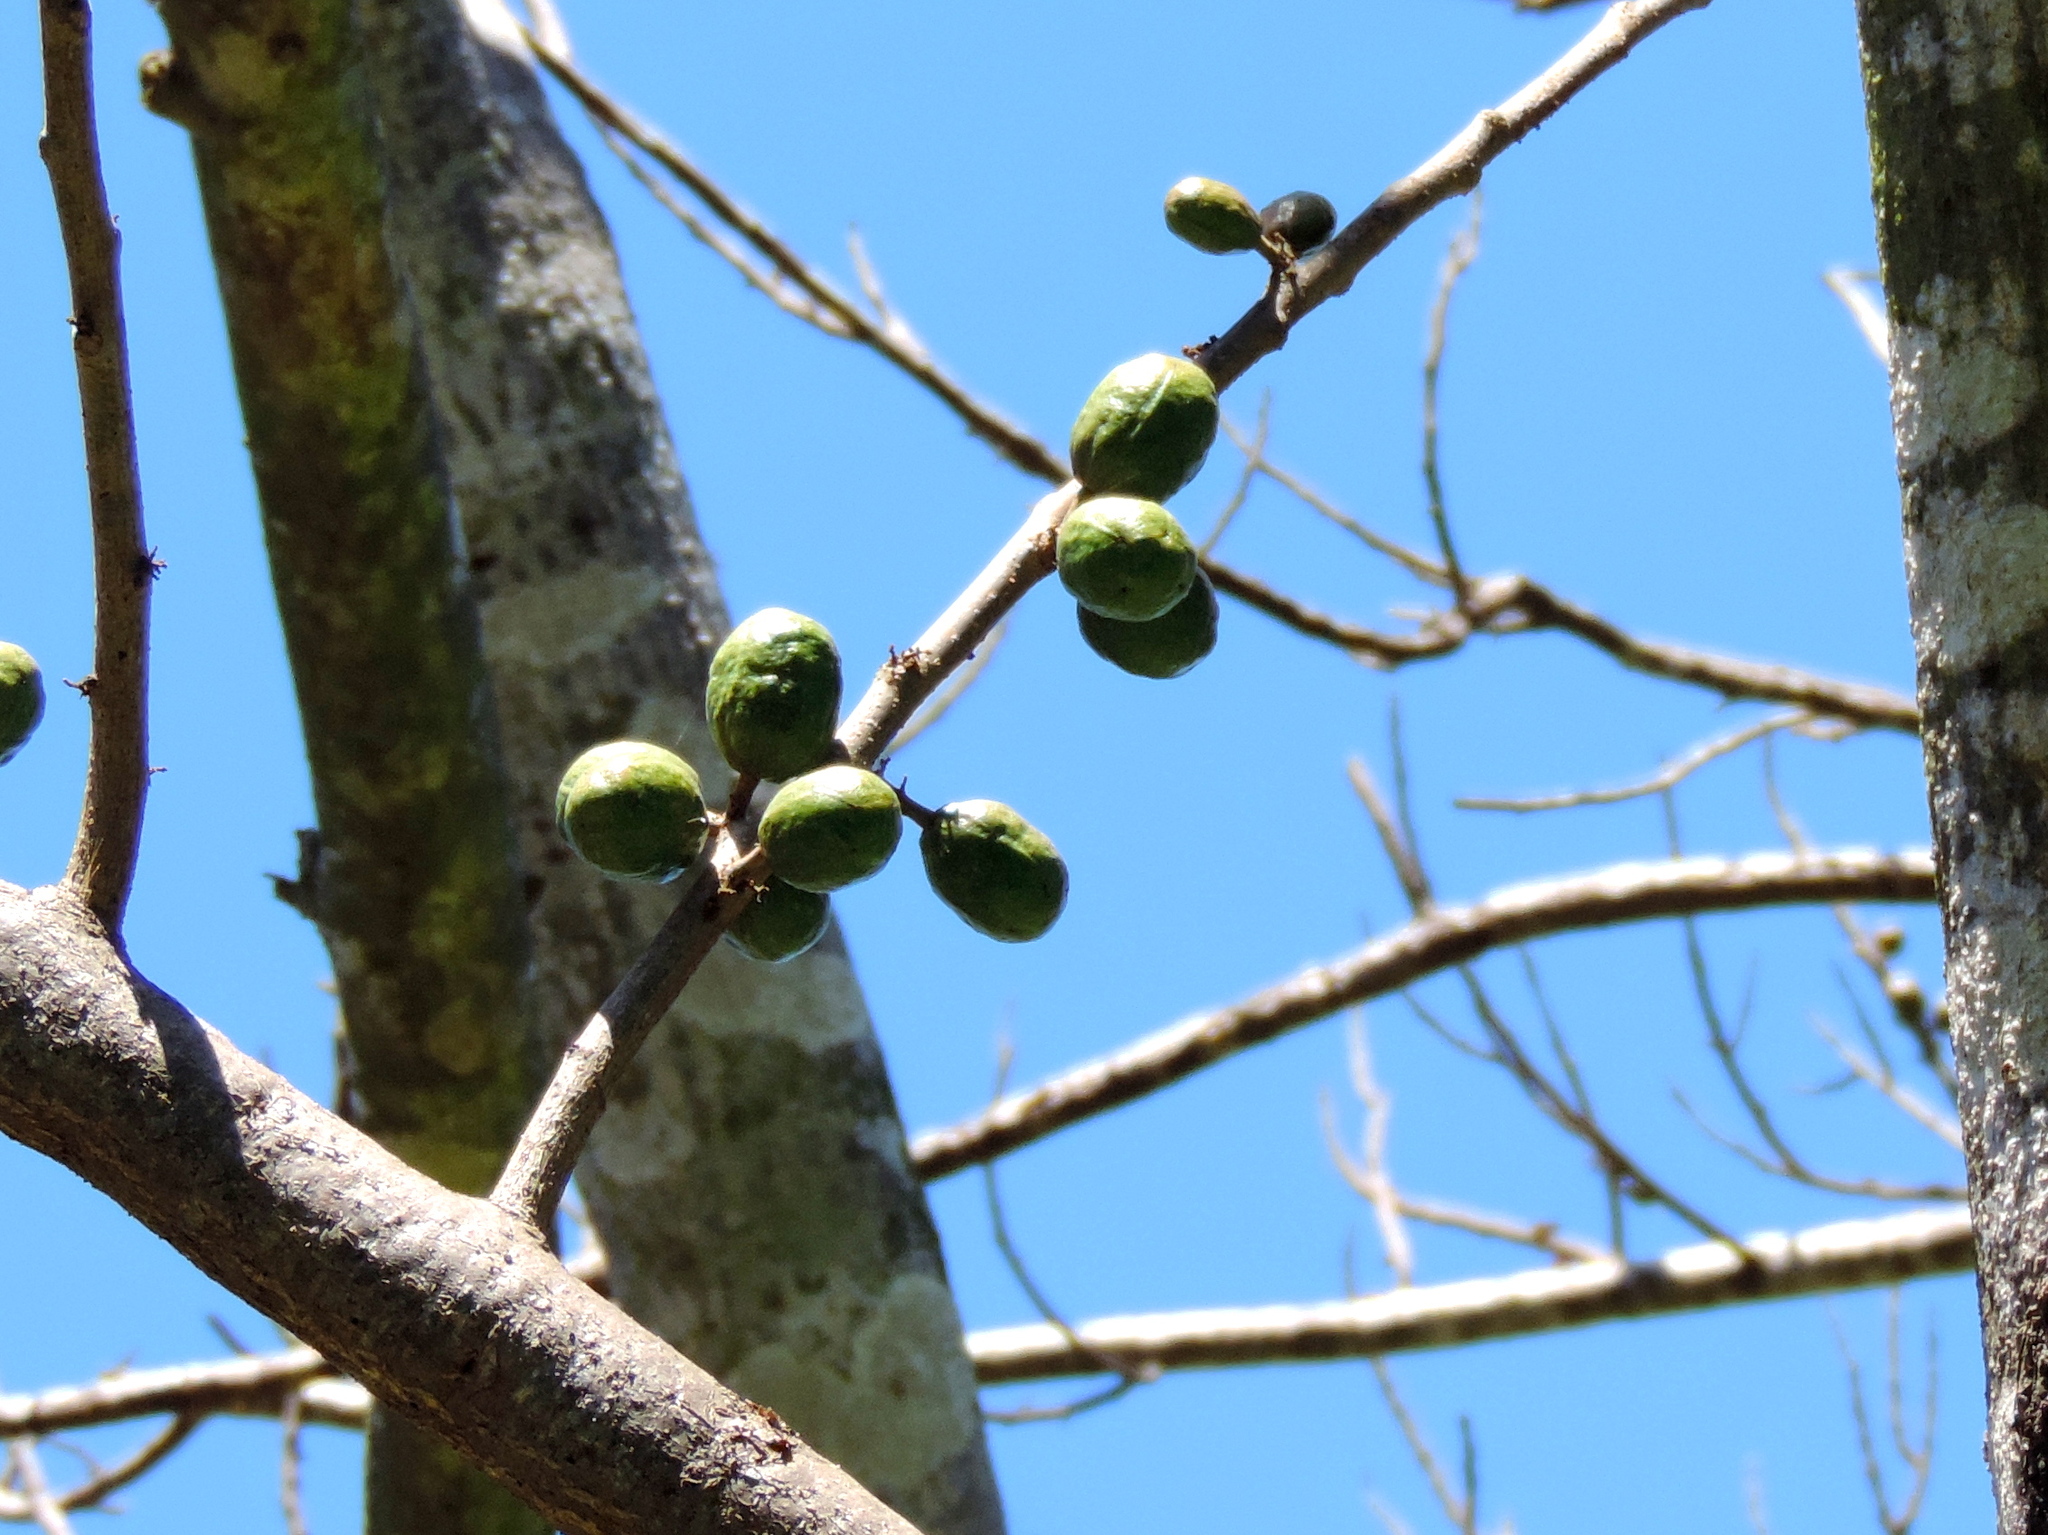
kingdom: Plantae
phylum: Tracheophyta
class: Magnoliopsida
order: Sapindales
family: Anacardiaceae
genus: Spondias
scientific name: Spondias purpurea
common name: Purple mombin
